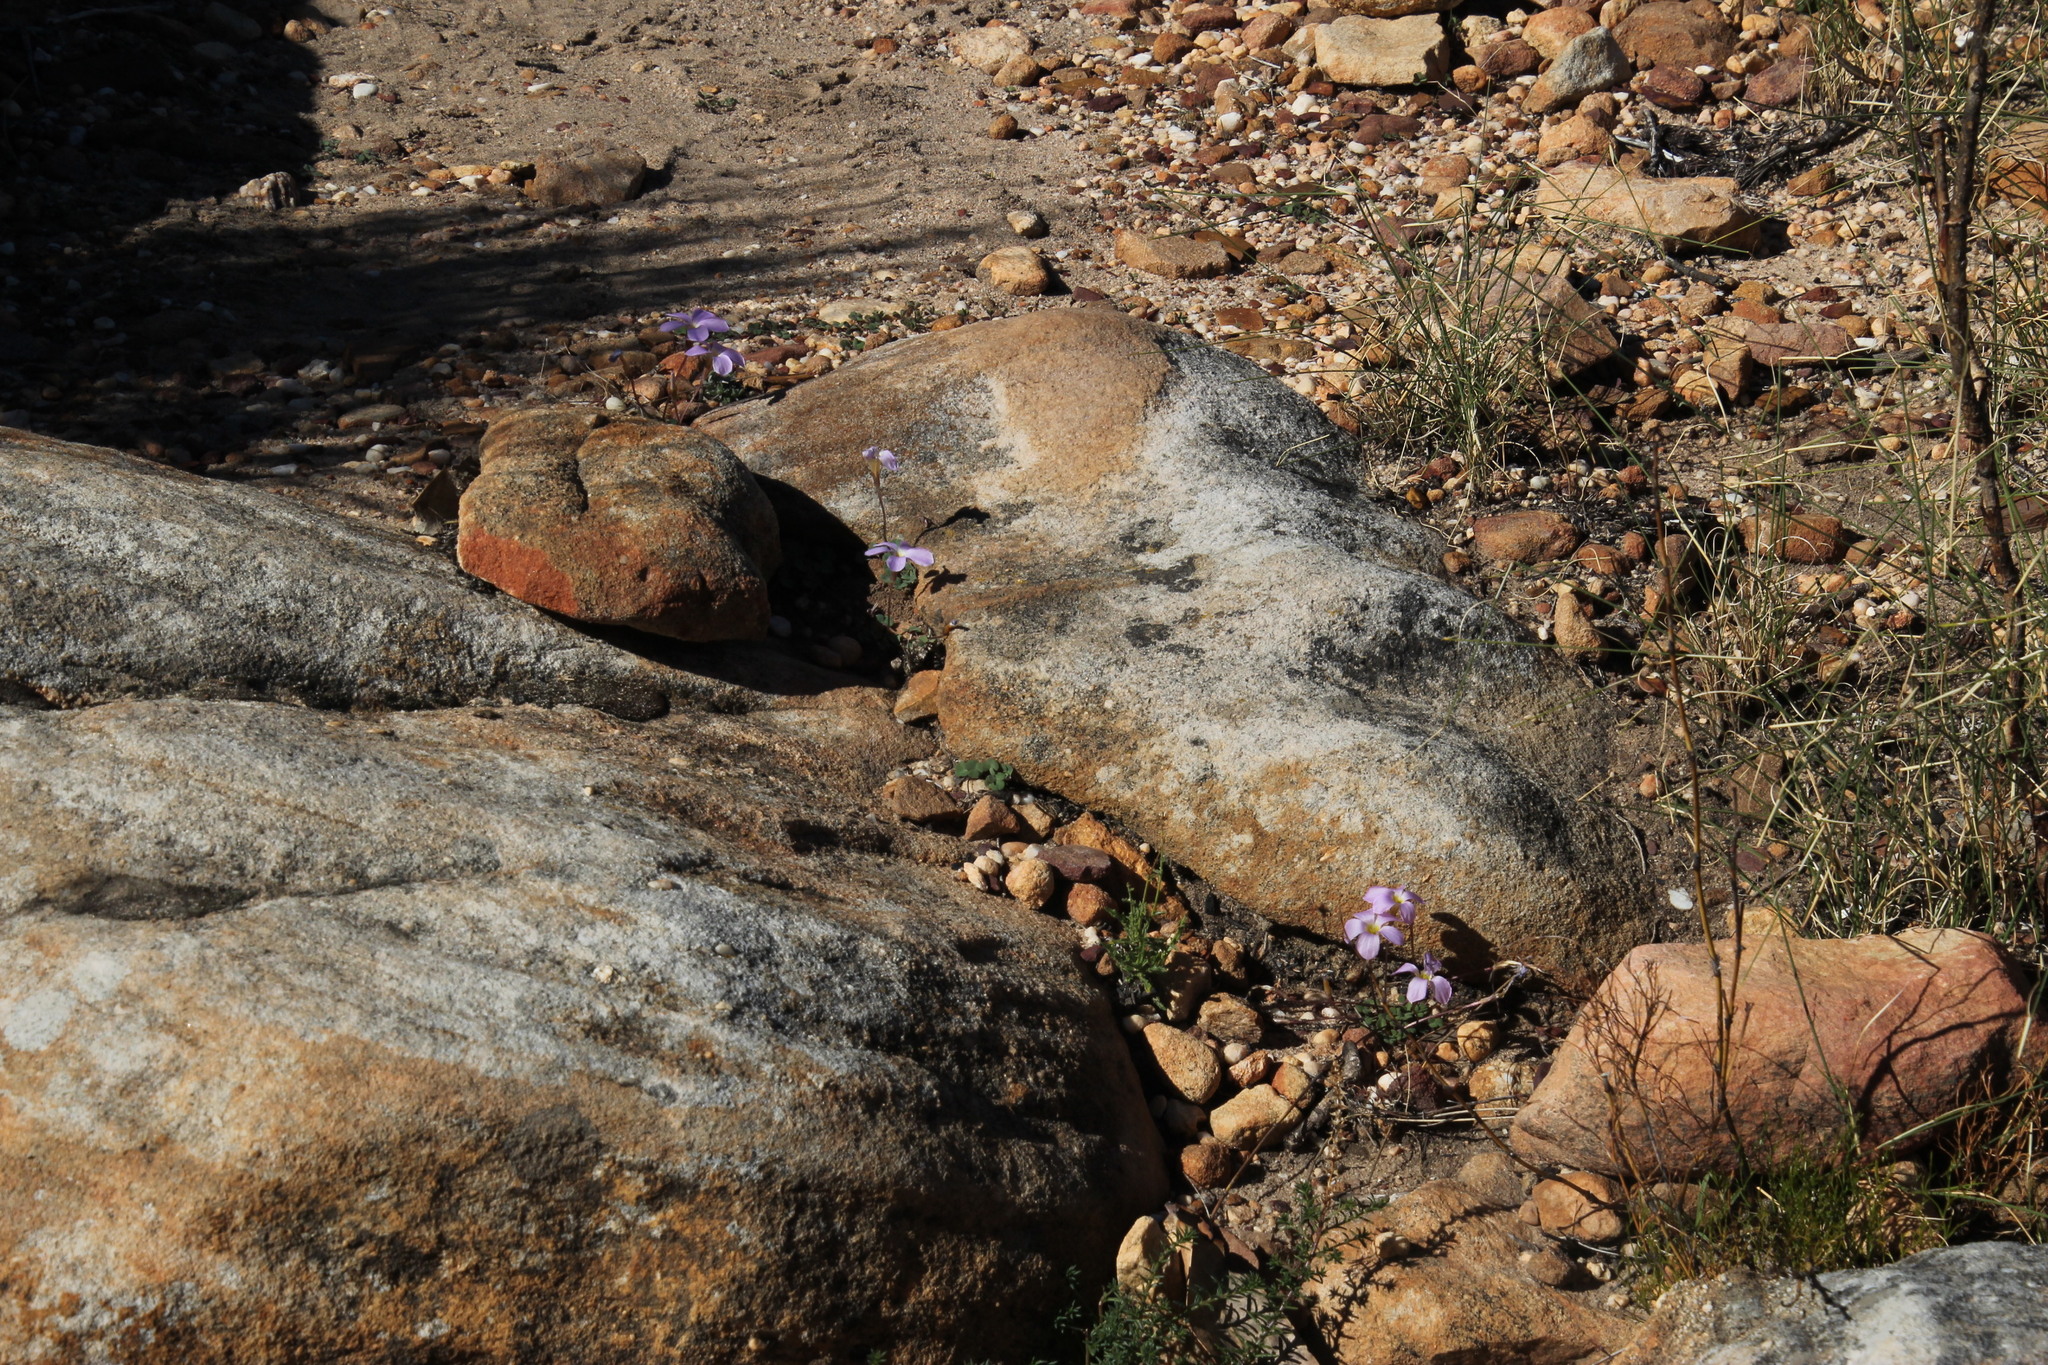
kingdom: Plantae
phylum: Tracheophyta
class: Magnoliopsida
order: Oxalidales
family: Oxalidaceae
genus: Oxalis
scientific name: Oxalis pocockiae
